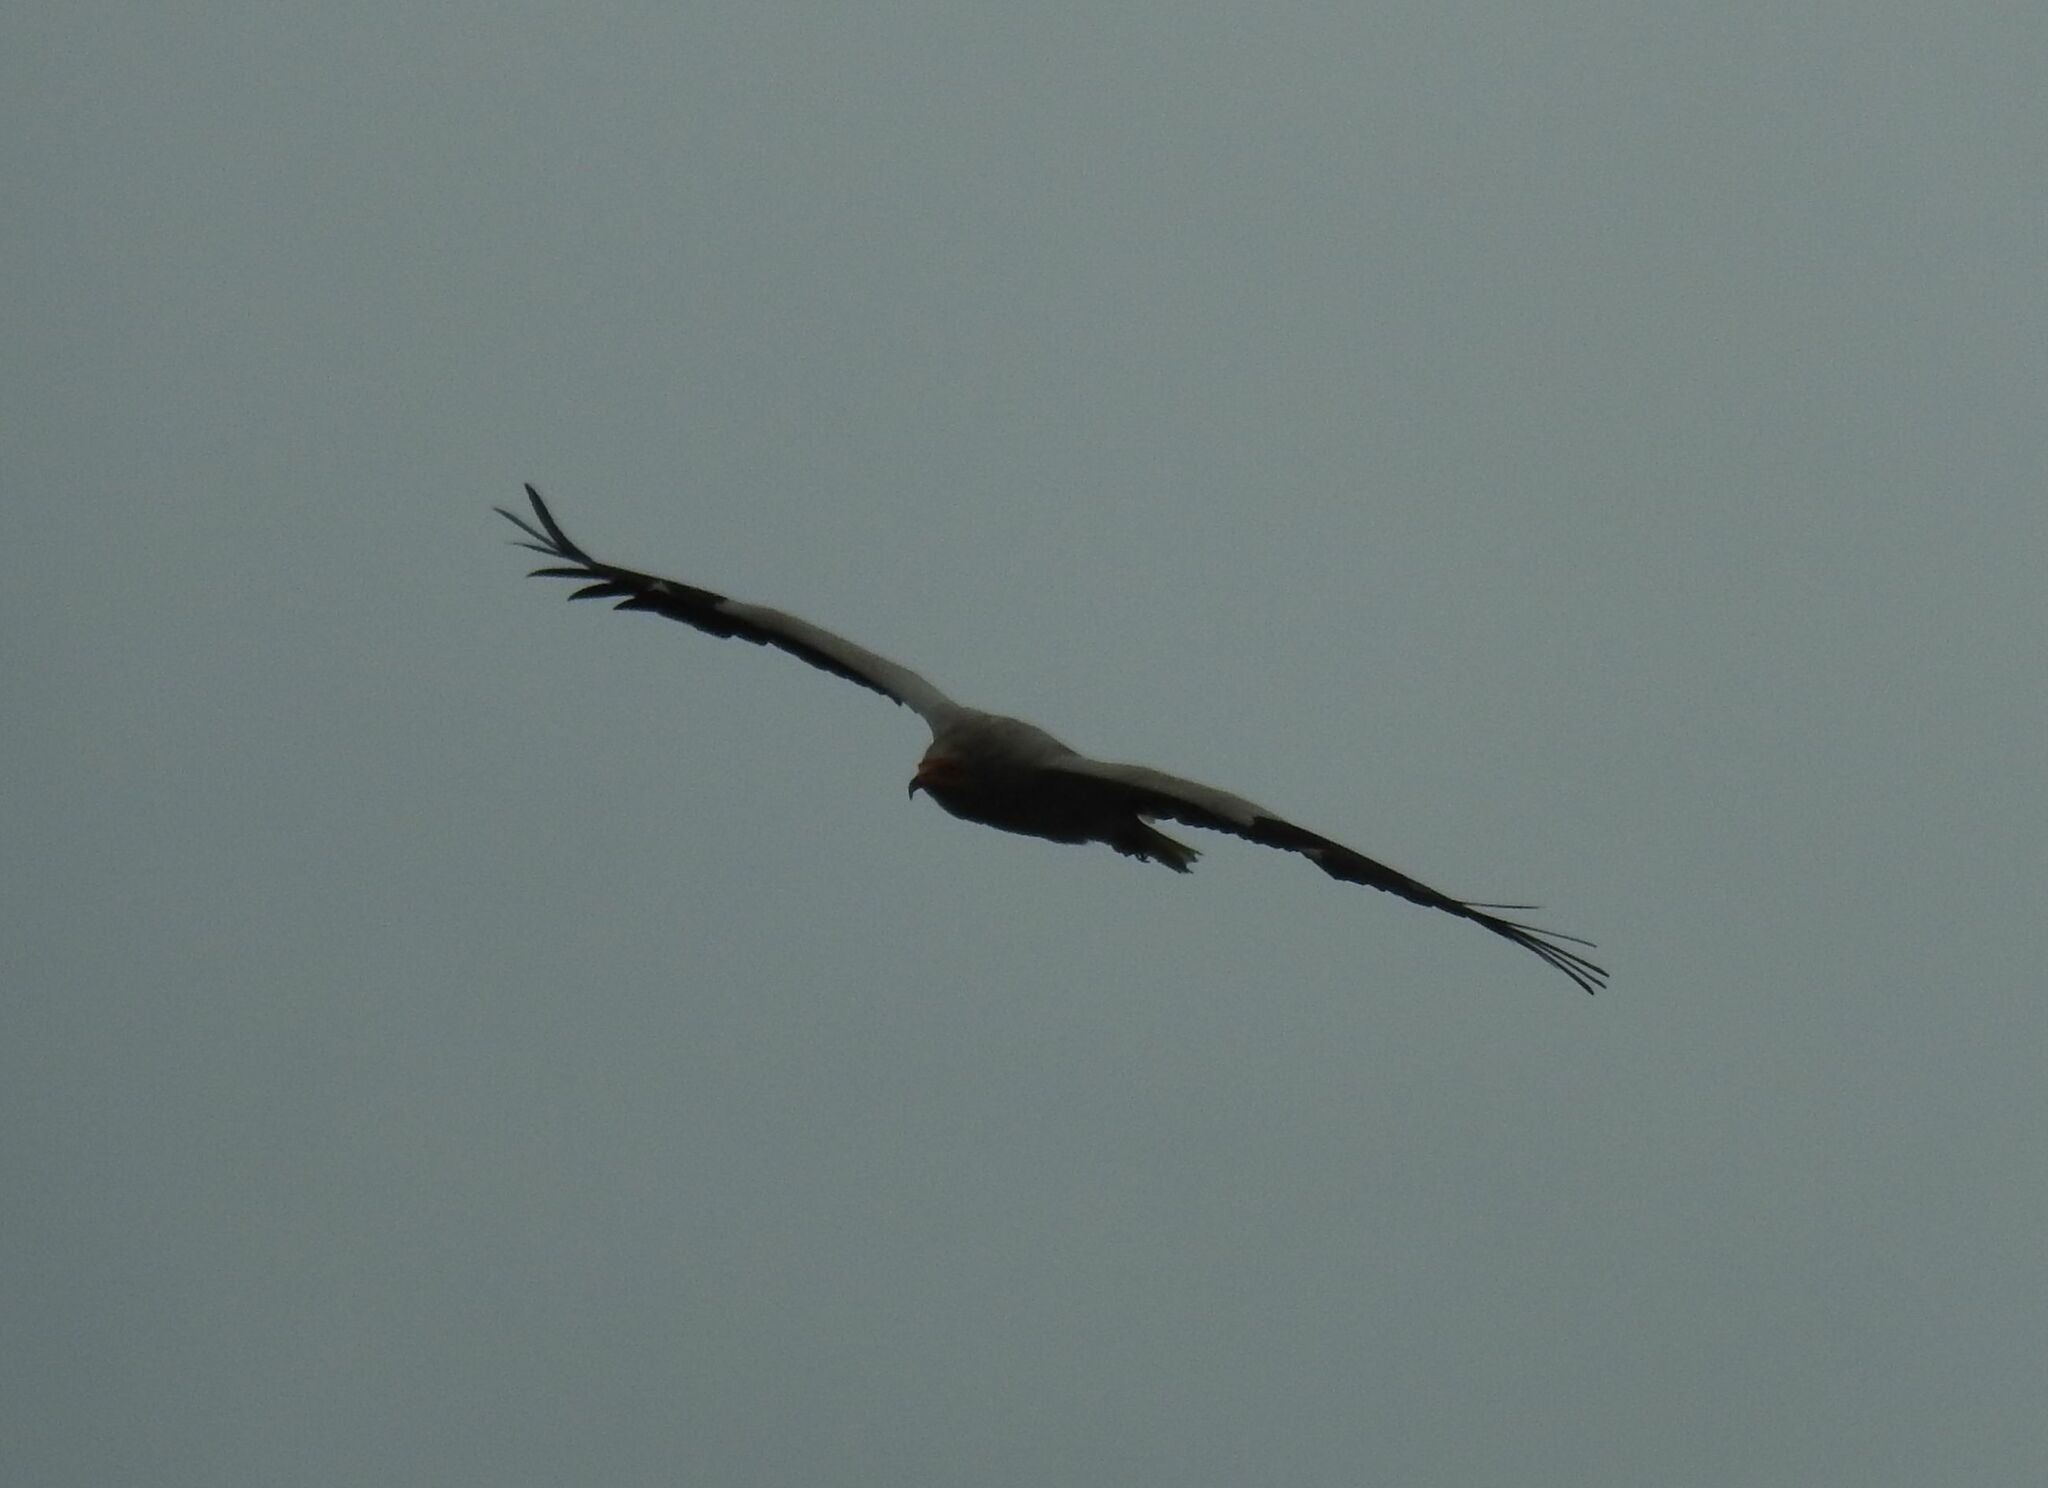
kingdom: Animalia
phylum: Chordata
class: Aves
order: Accipitriformes
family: Accipitridae
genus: Neophron
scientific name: Neophron percnopterus
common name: Egyptian vulture
